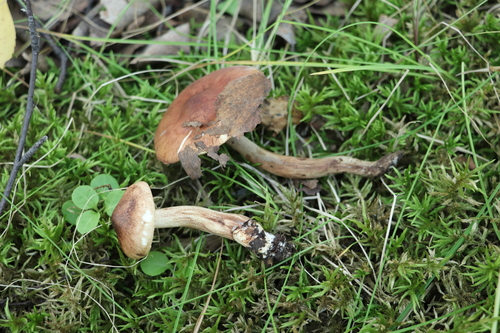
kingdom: Fungi
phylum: Basidiomycota
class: Agaricomycetes
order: Agaricales
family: Tricholomataceae
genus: Tricholoma
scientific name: Tricholoma fulvum
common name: Birch knight
